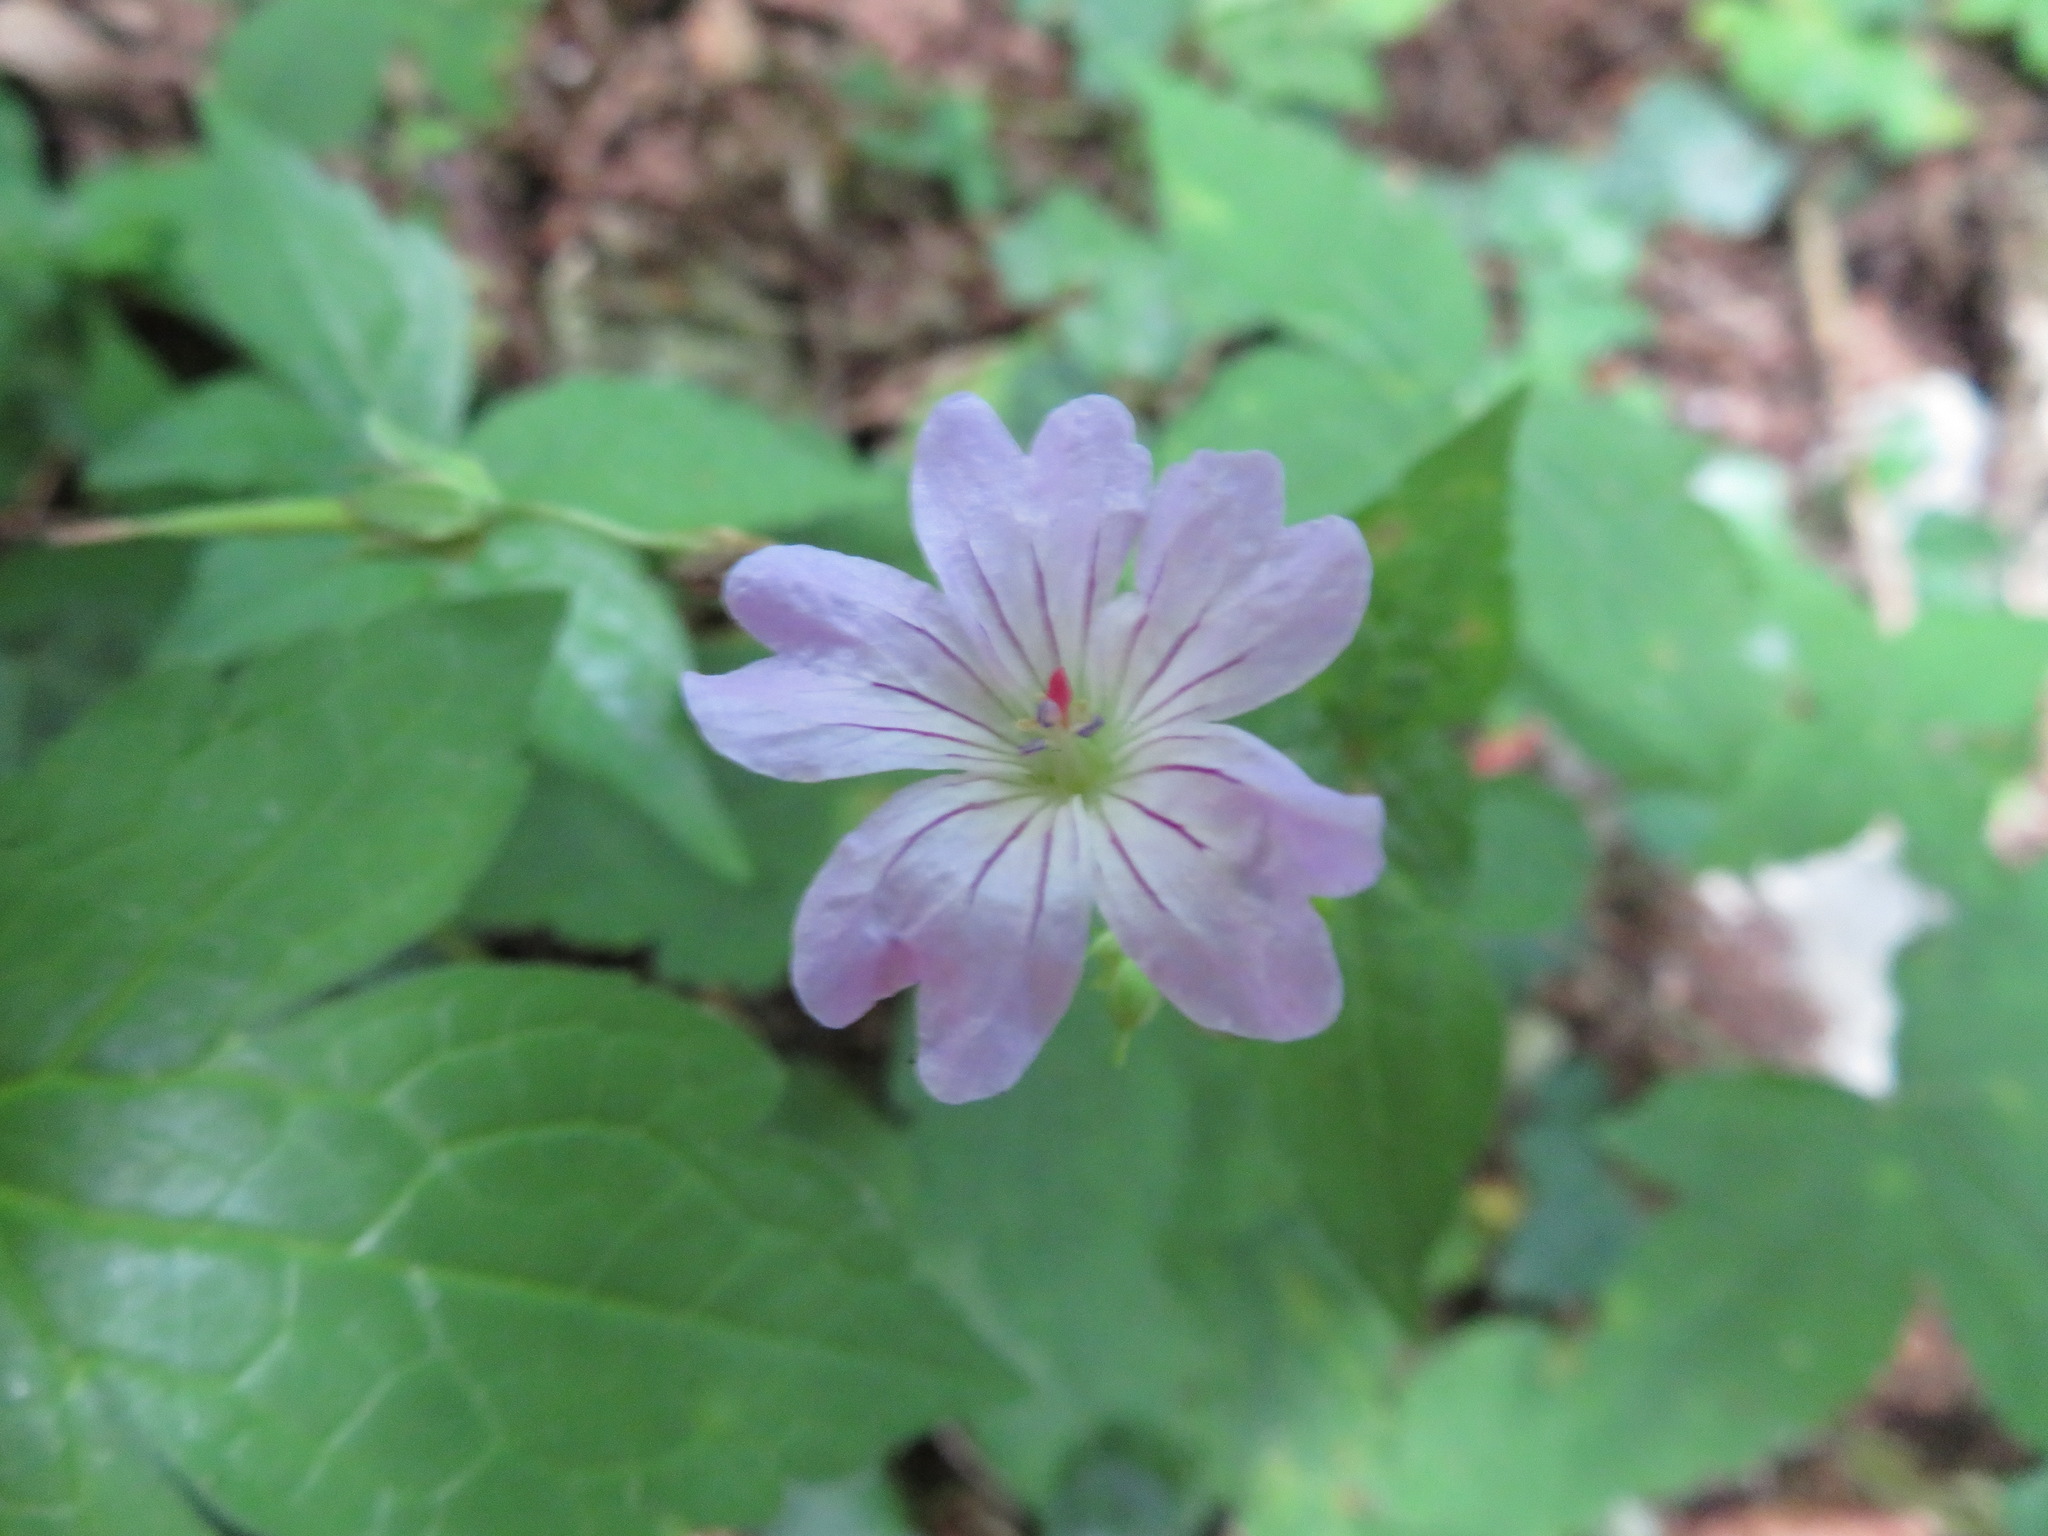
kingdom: Plantae
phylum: Tracheophyta
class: Magnoliopsida
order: Geraniales
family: Geraniaceae
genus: Geranium
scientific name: Geranium nodosum
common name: Knotted crane's-bill
